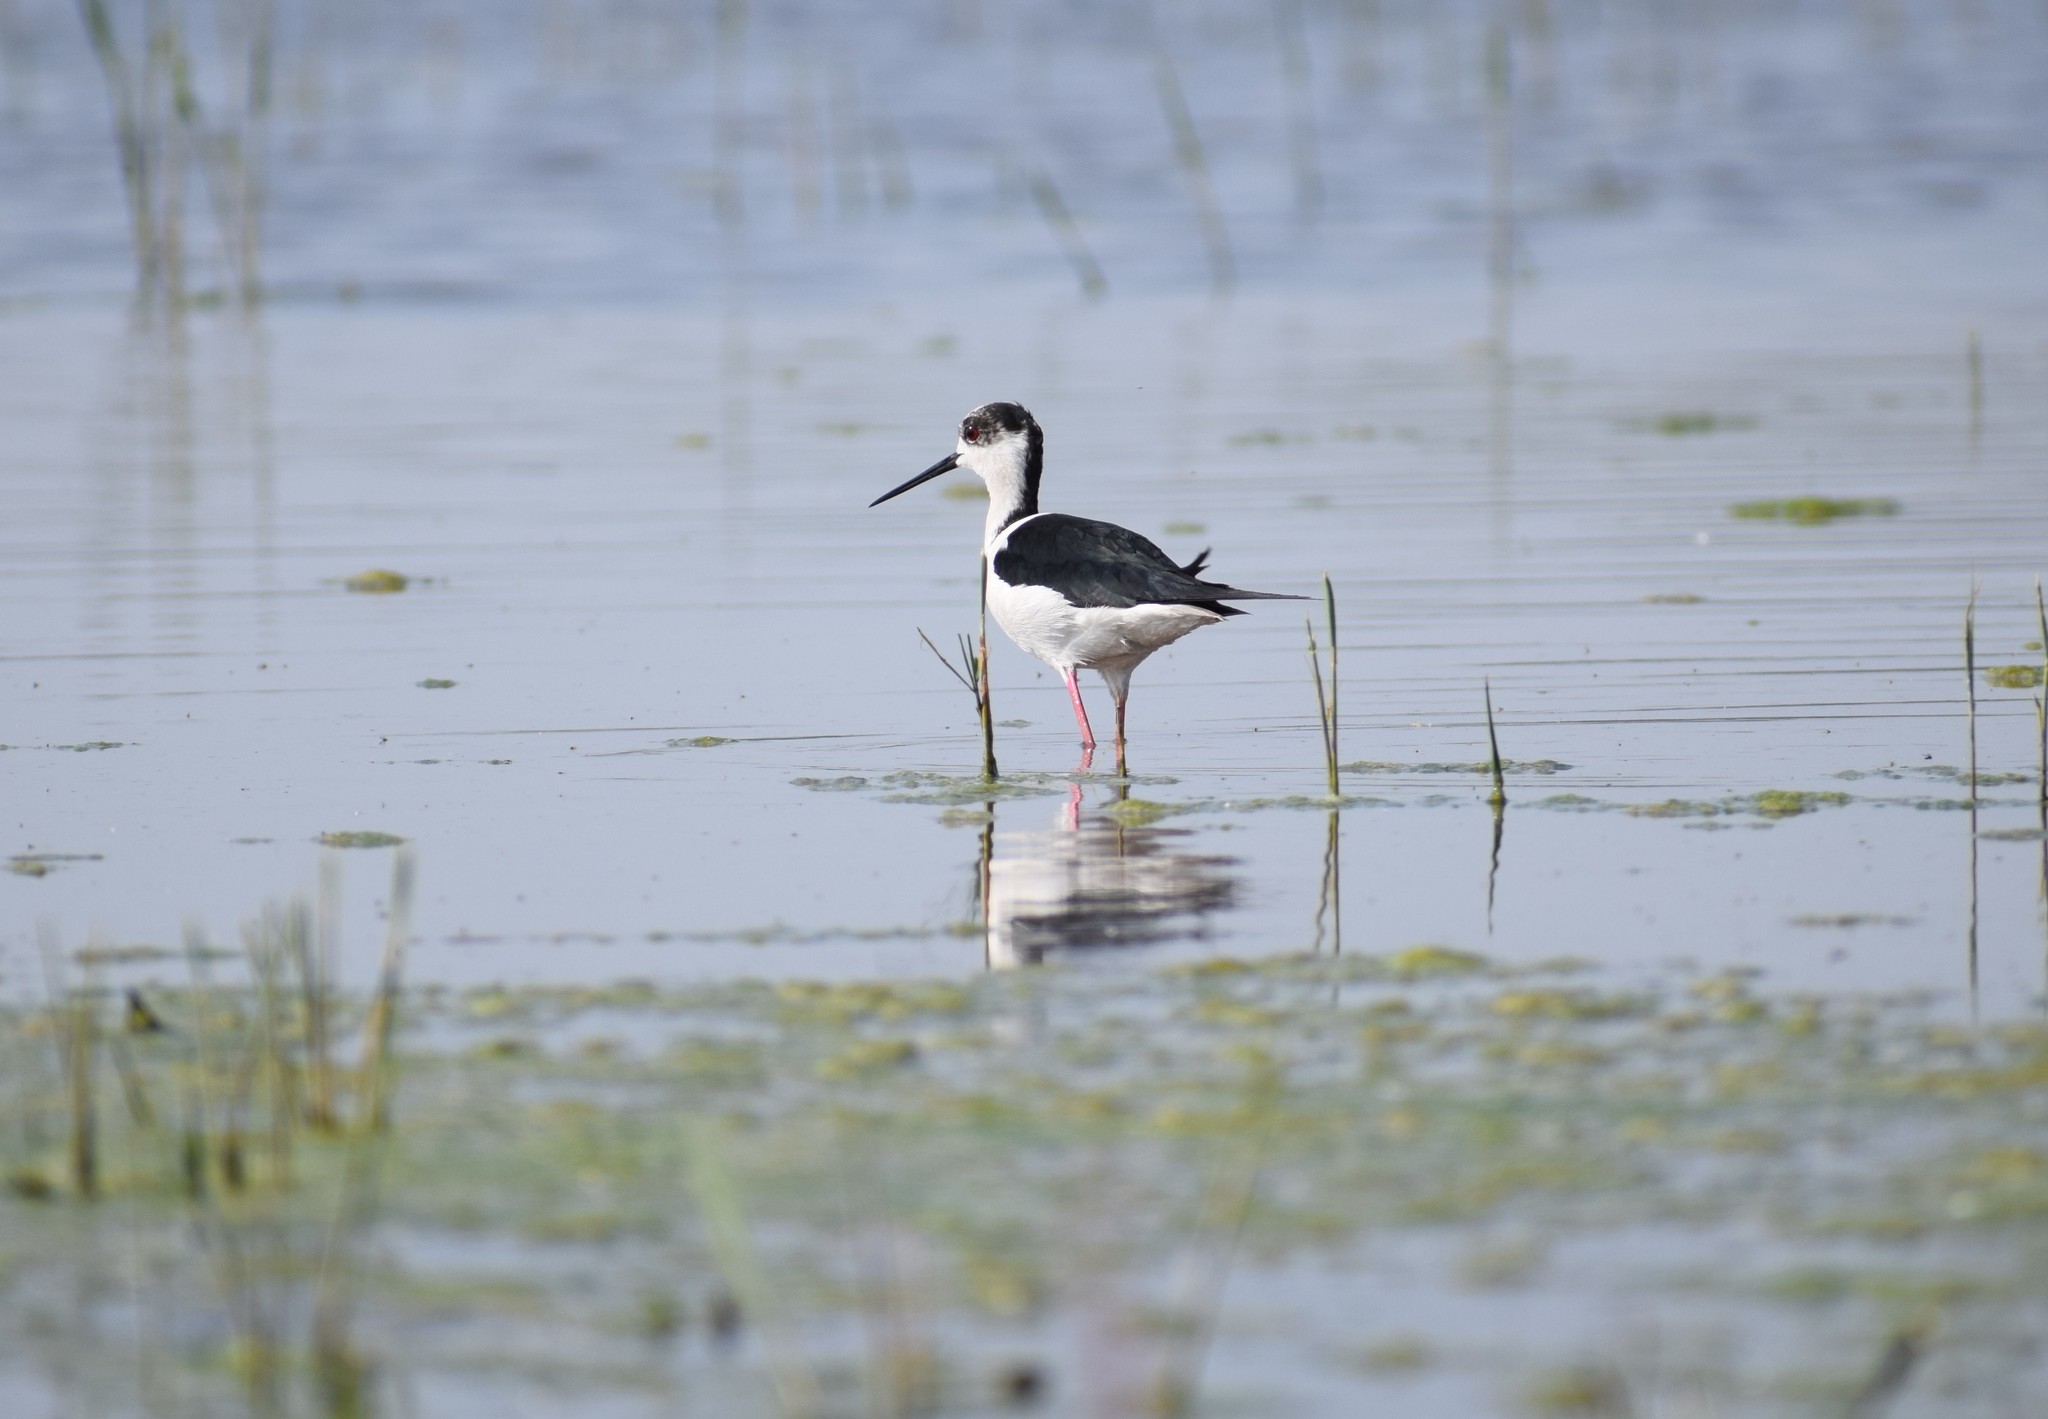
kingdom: Animalia
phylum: Chordata
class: Aves
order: Charadriiformes
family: Recurvirostridae
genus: Himantopus
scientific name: Himantopus himantopus
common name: Black-winged stilt
